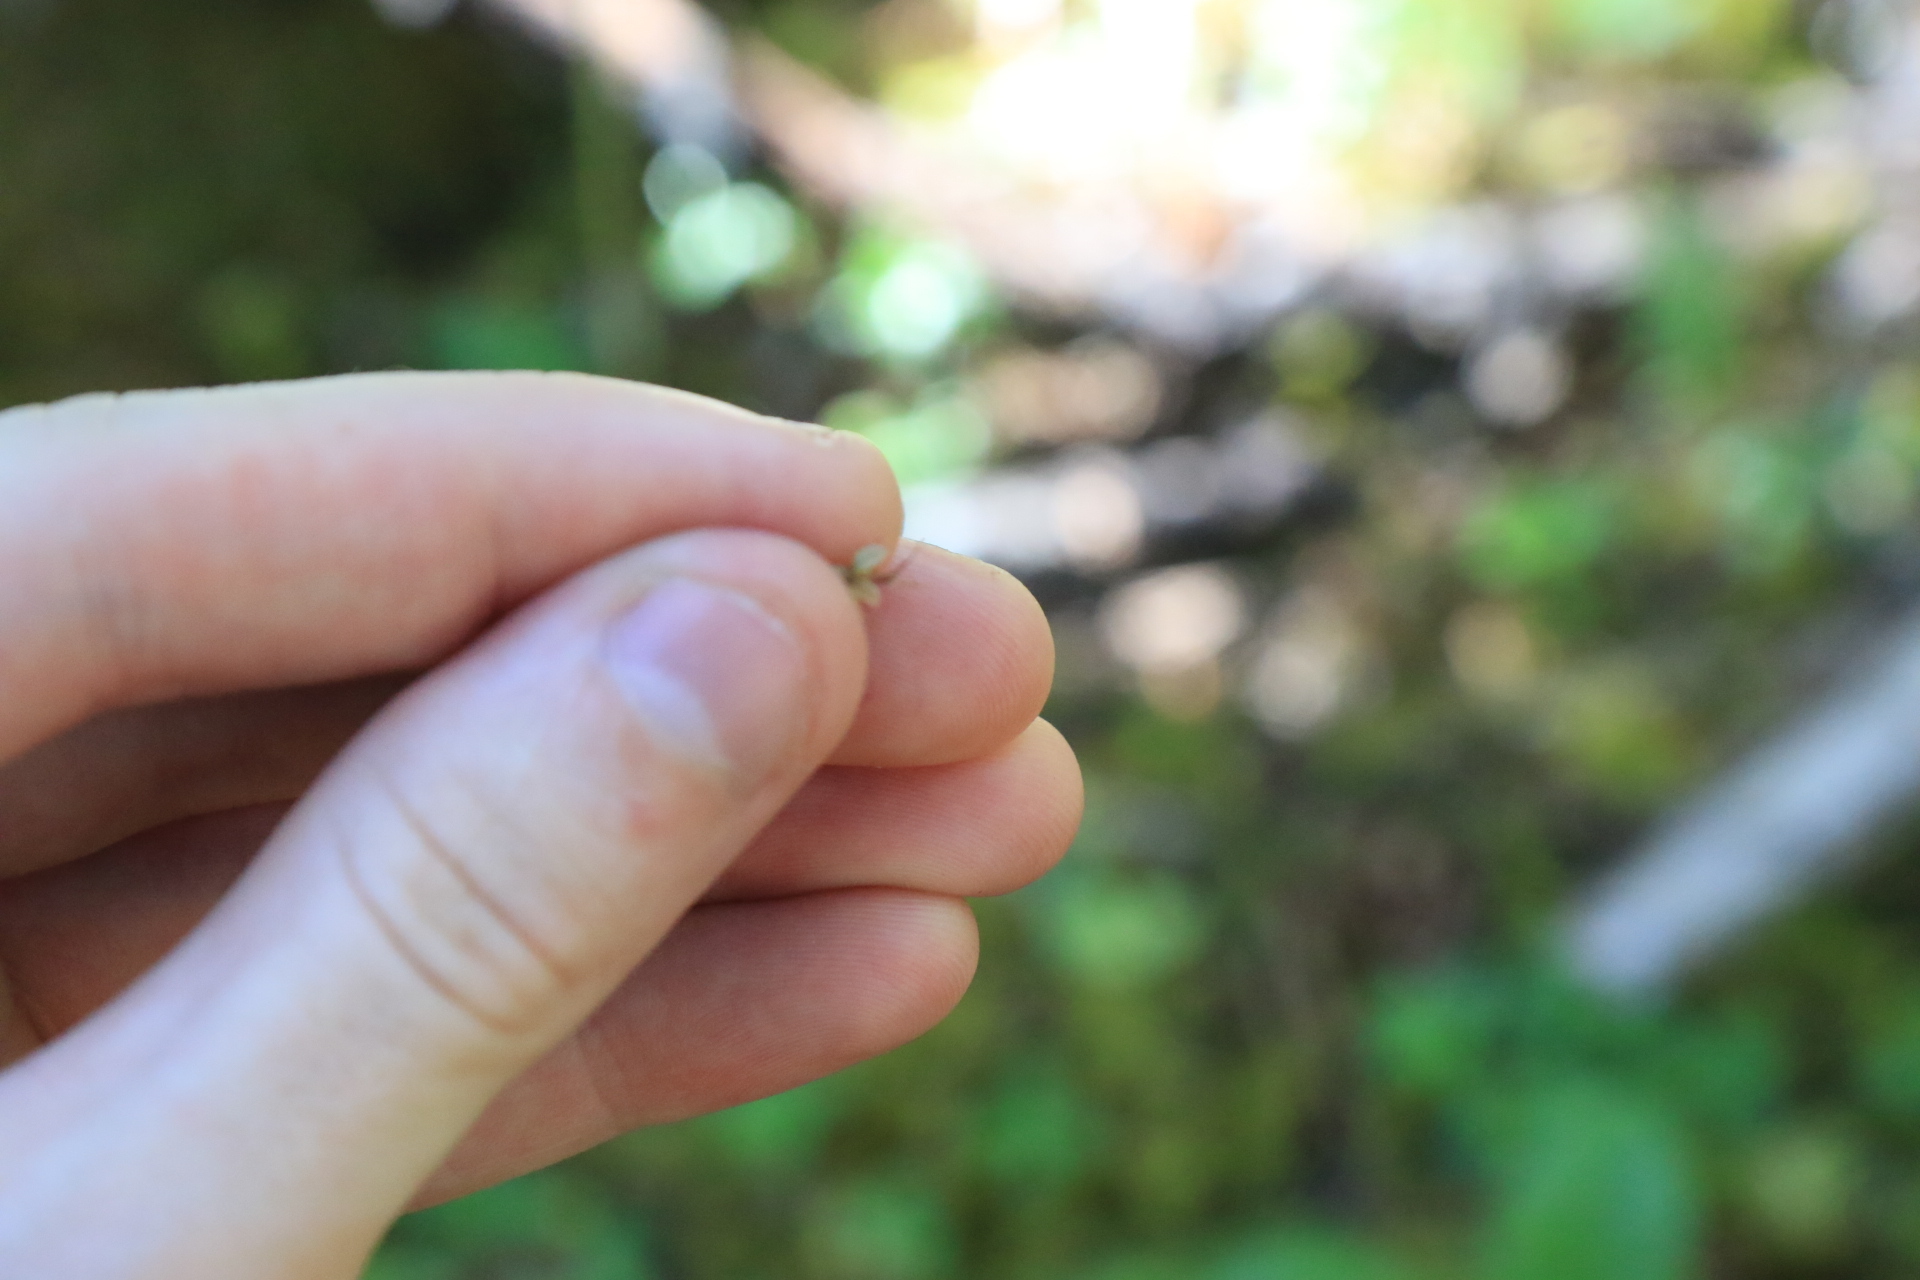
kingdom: Plantae
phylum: Tracheophyta
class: Liliopsida
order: Asparagales
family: Orchidaceae
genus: Neottia
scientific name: Neottia cordata
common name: Lesser twayblade
